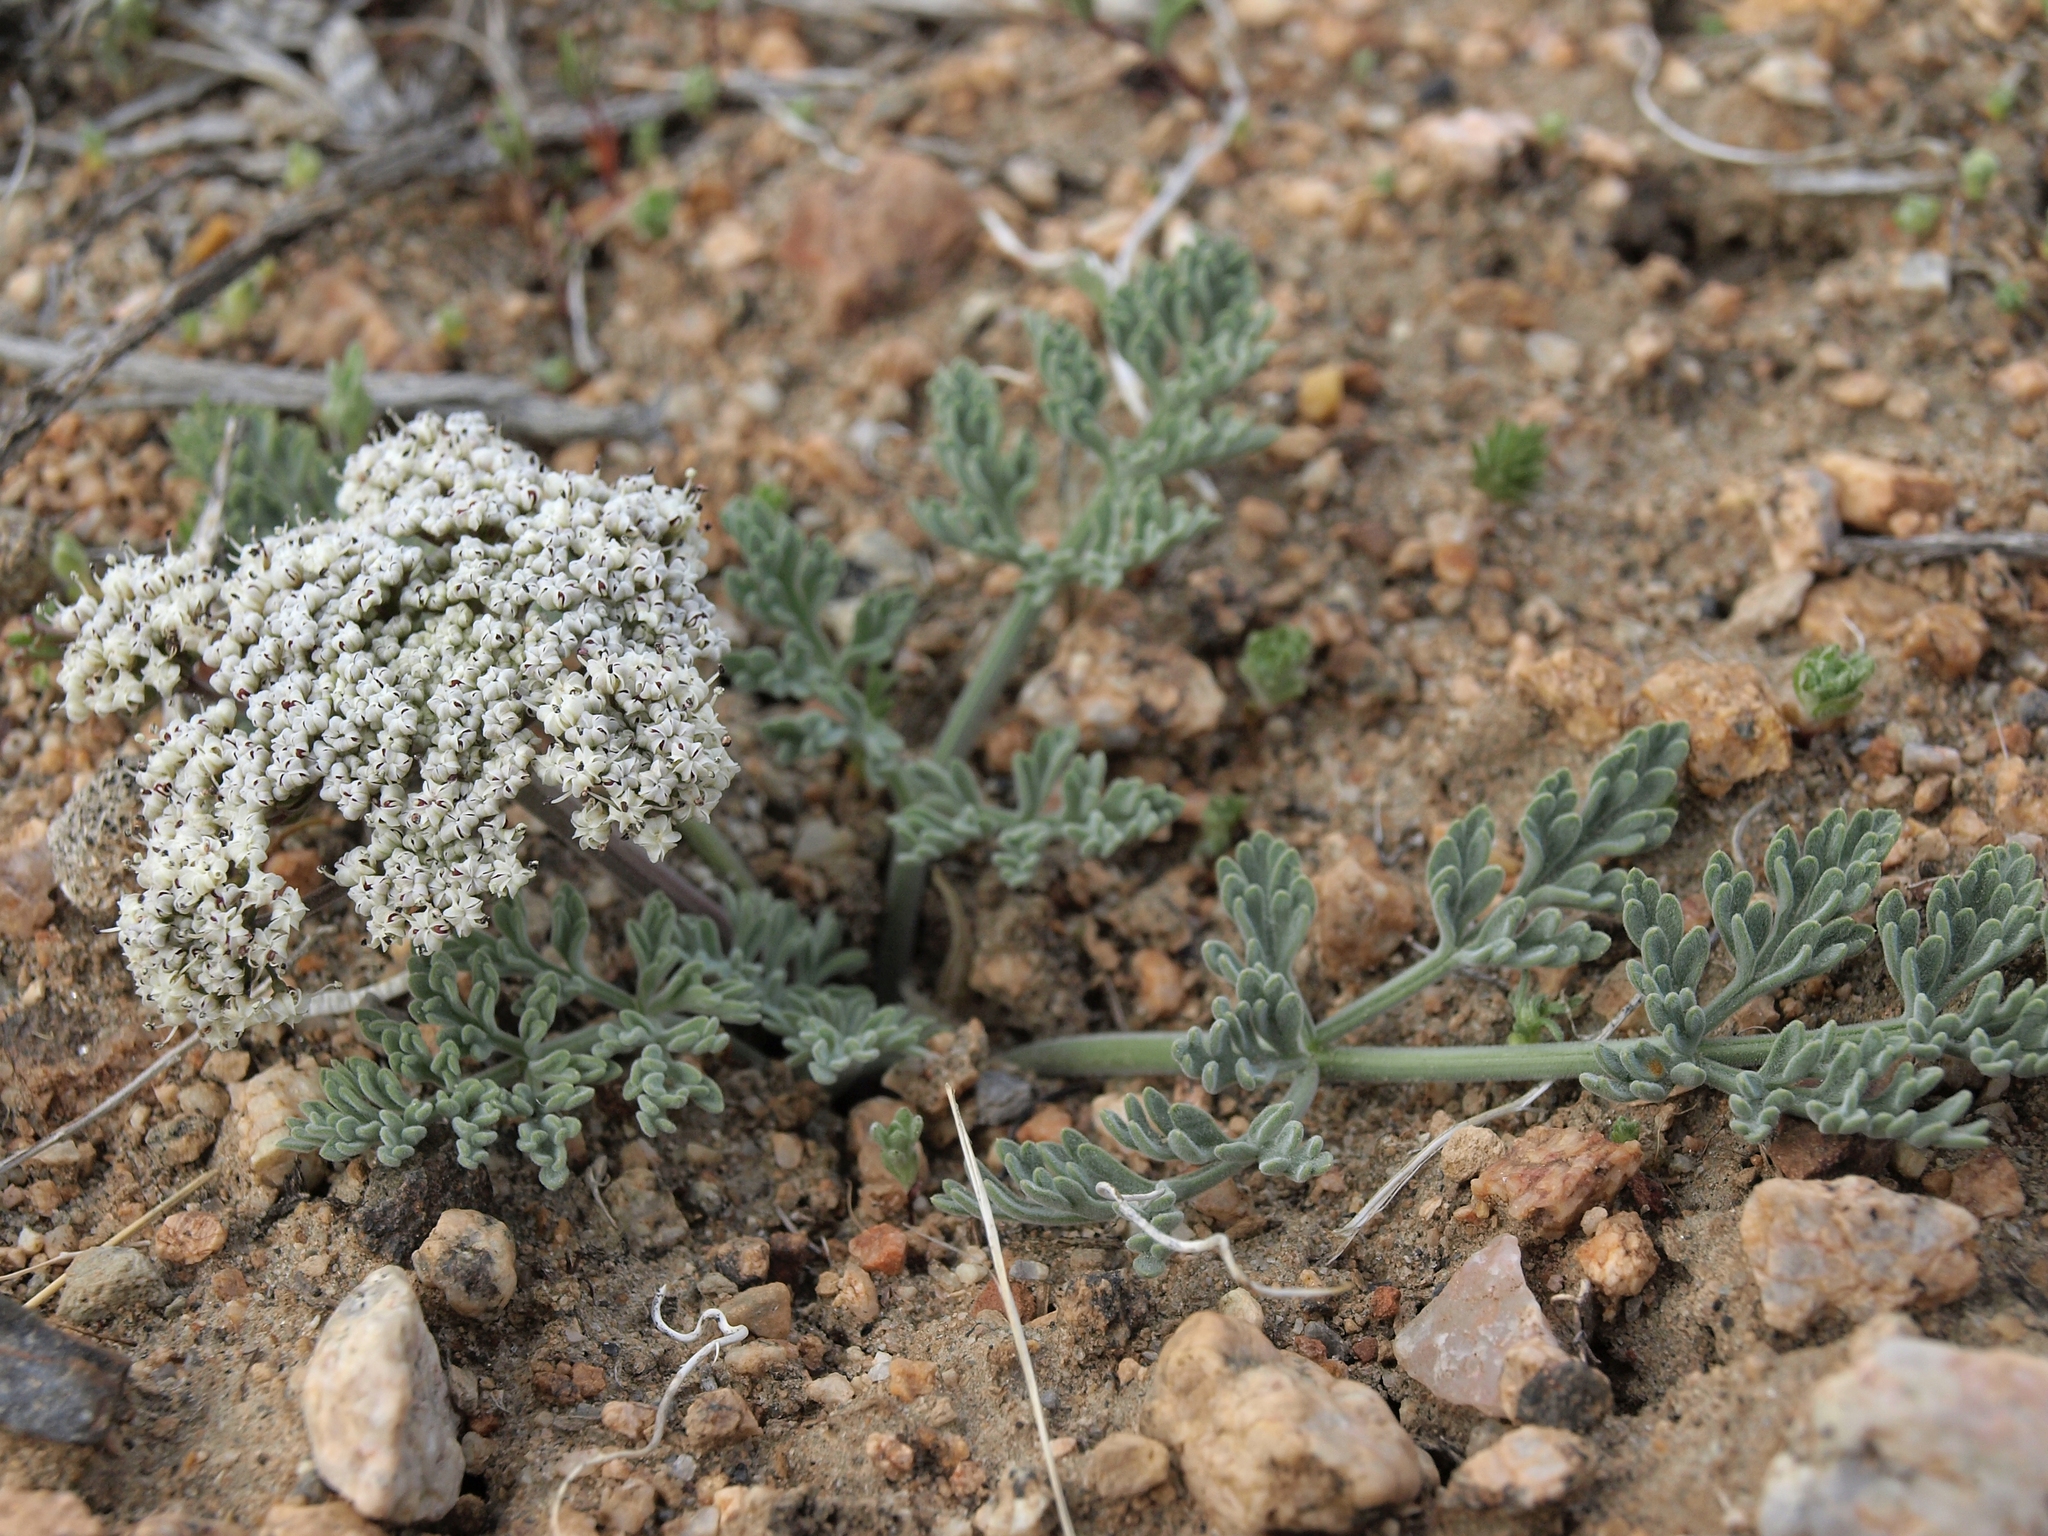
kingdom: Plantae
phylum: Tracheophyta
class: Magnoliopsida
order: Apiales
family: Apiaceae
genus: Lomatium
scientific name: Lomatium nevadense
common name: Nevada lomatium
